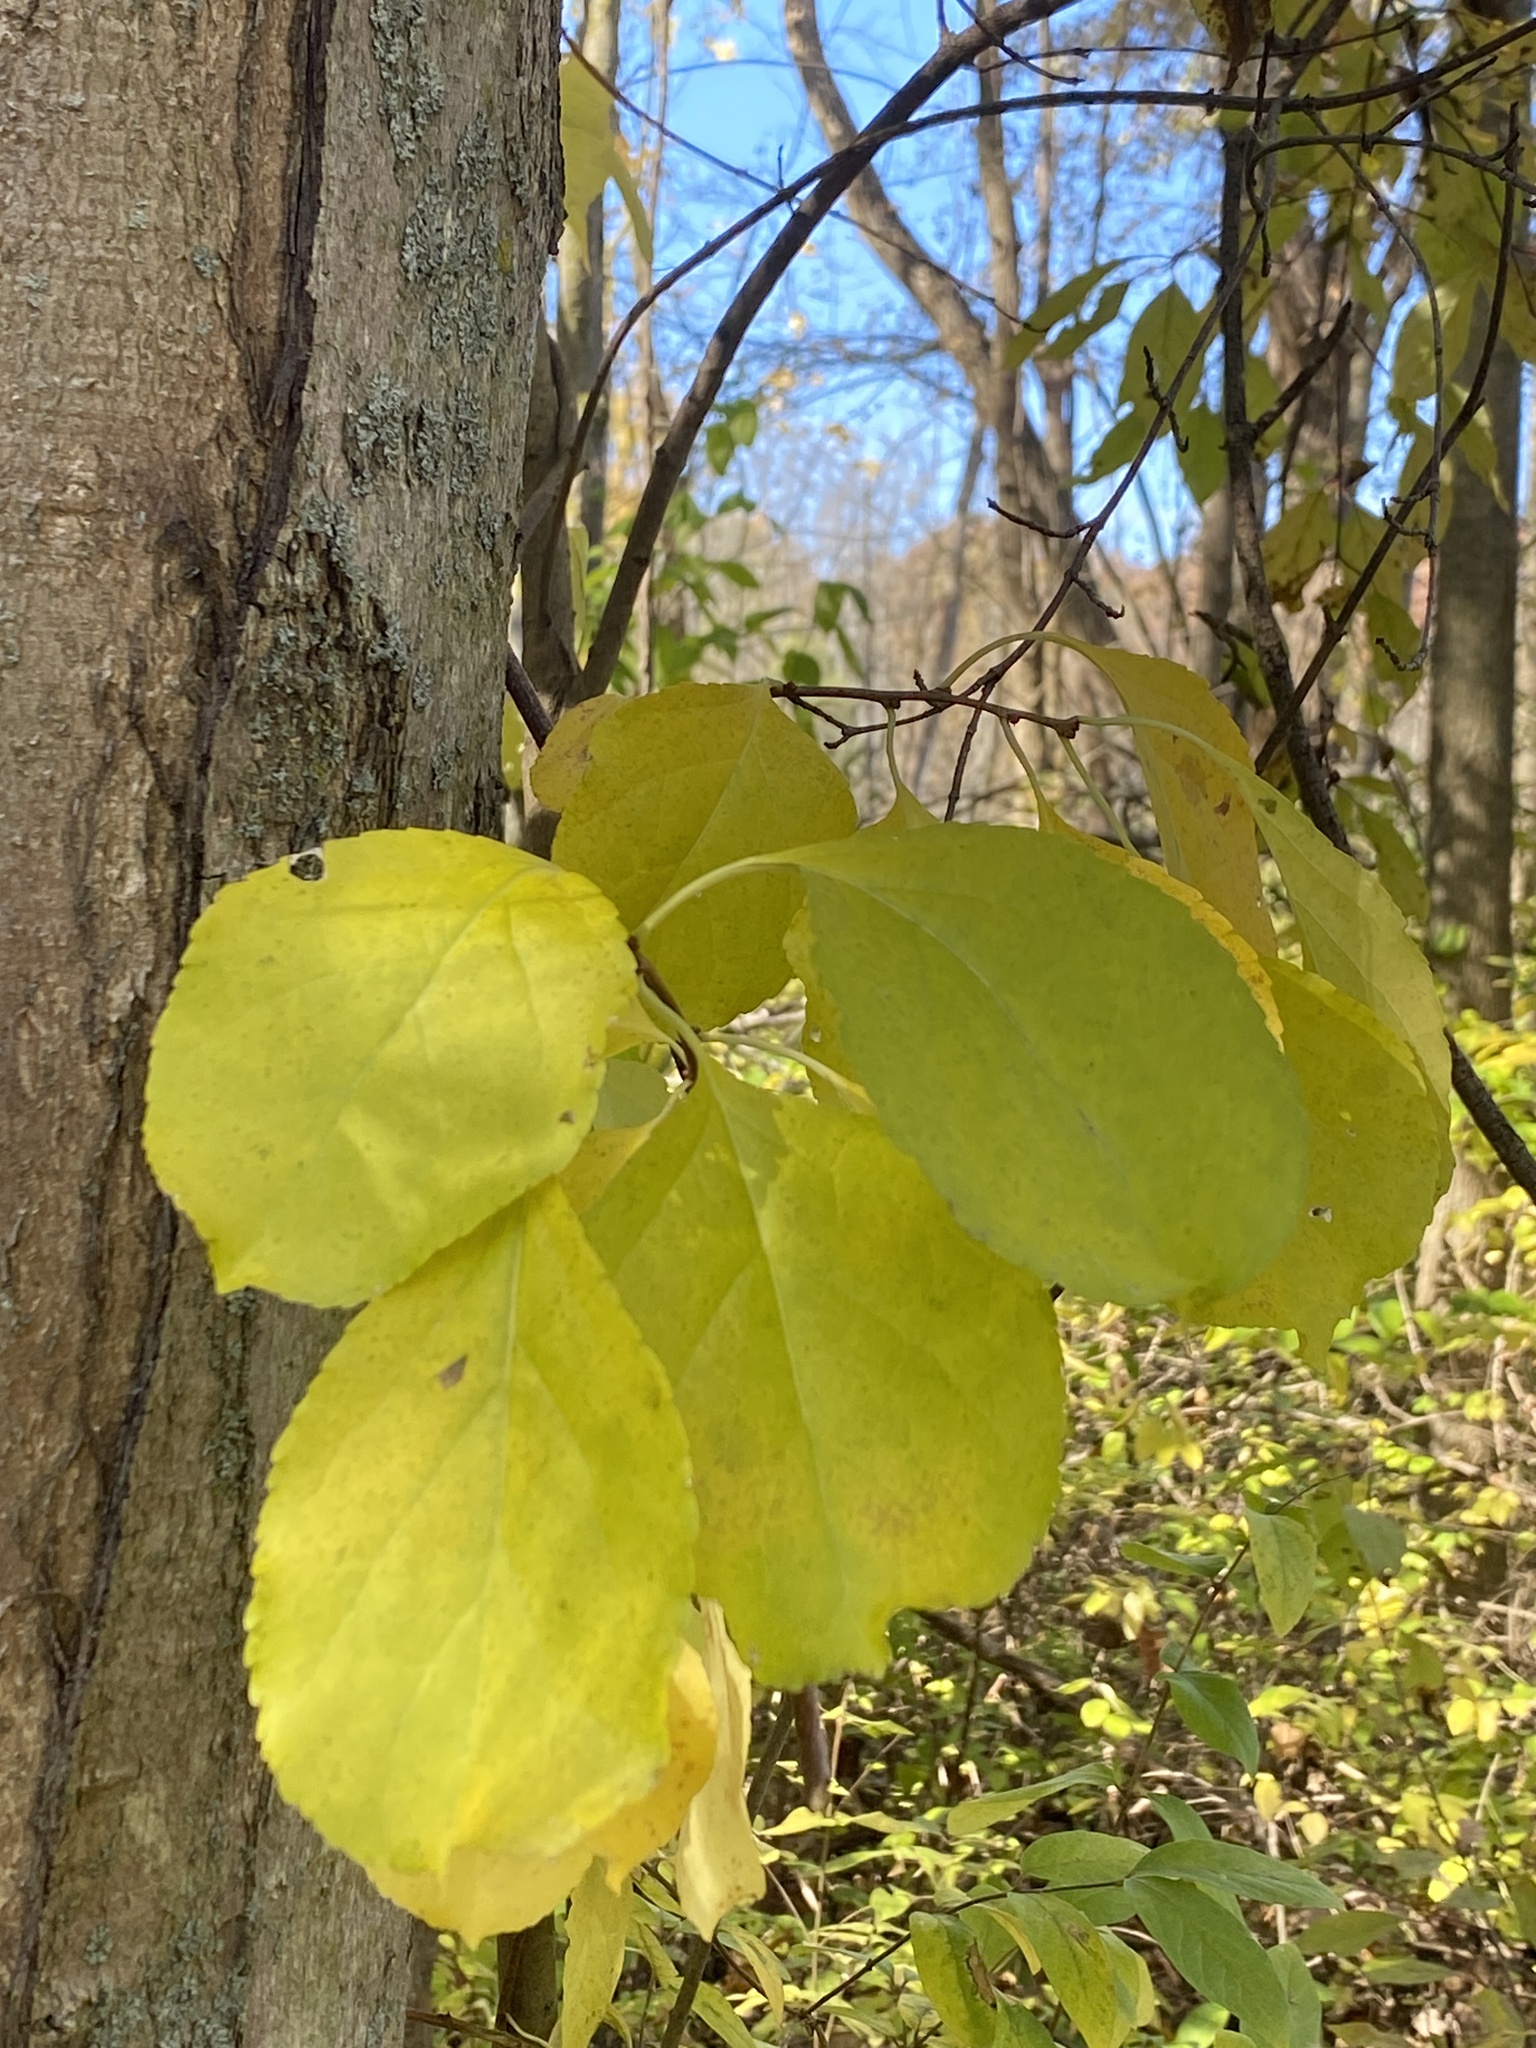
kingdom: Plantae
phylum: Tracheophyta
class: Magnoliopsida
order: Celastrales
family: Celastraceae
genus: Celastrus
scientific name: Celastrus orbiculatus
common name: Oriental bittersweet
